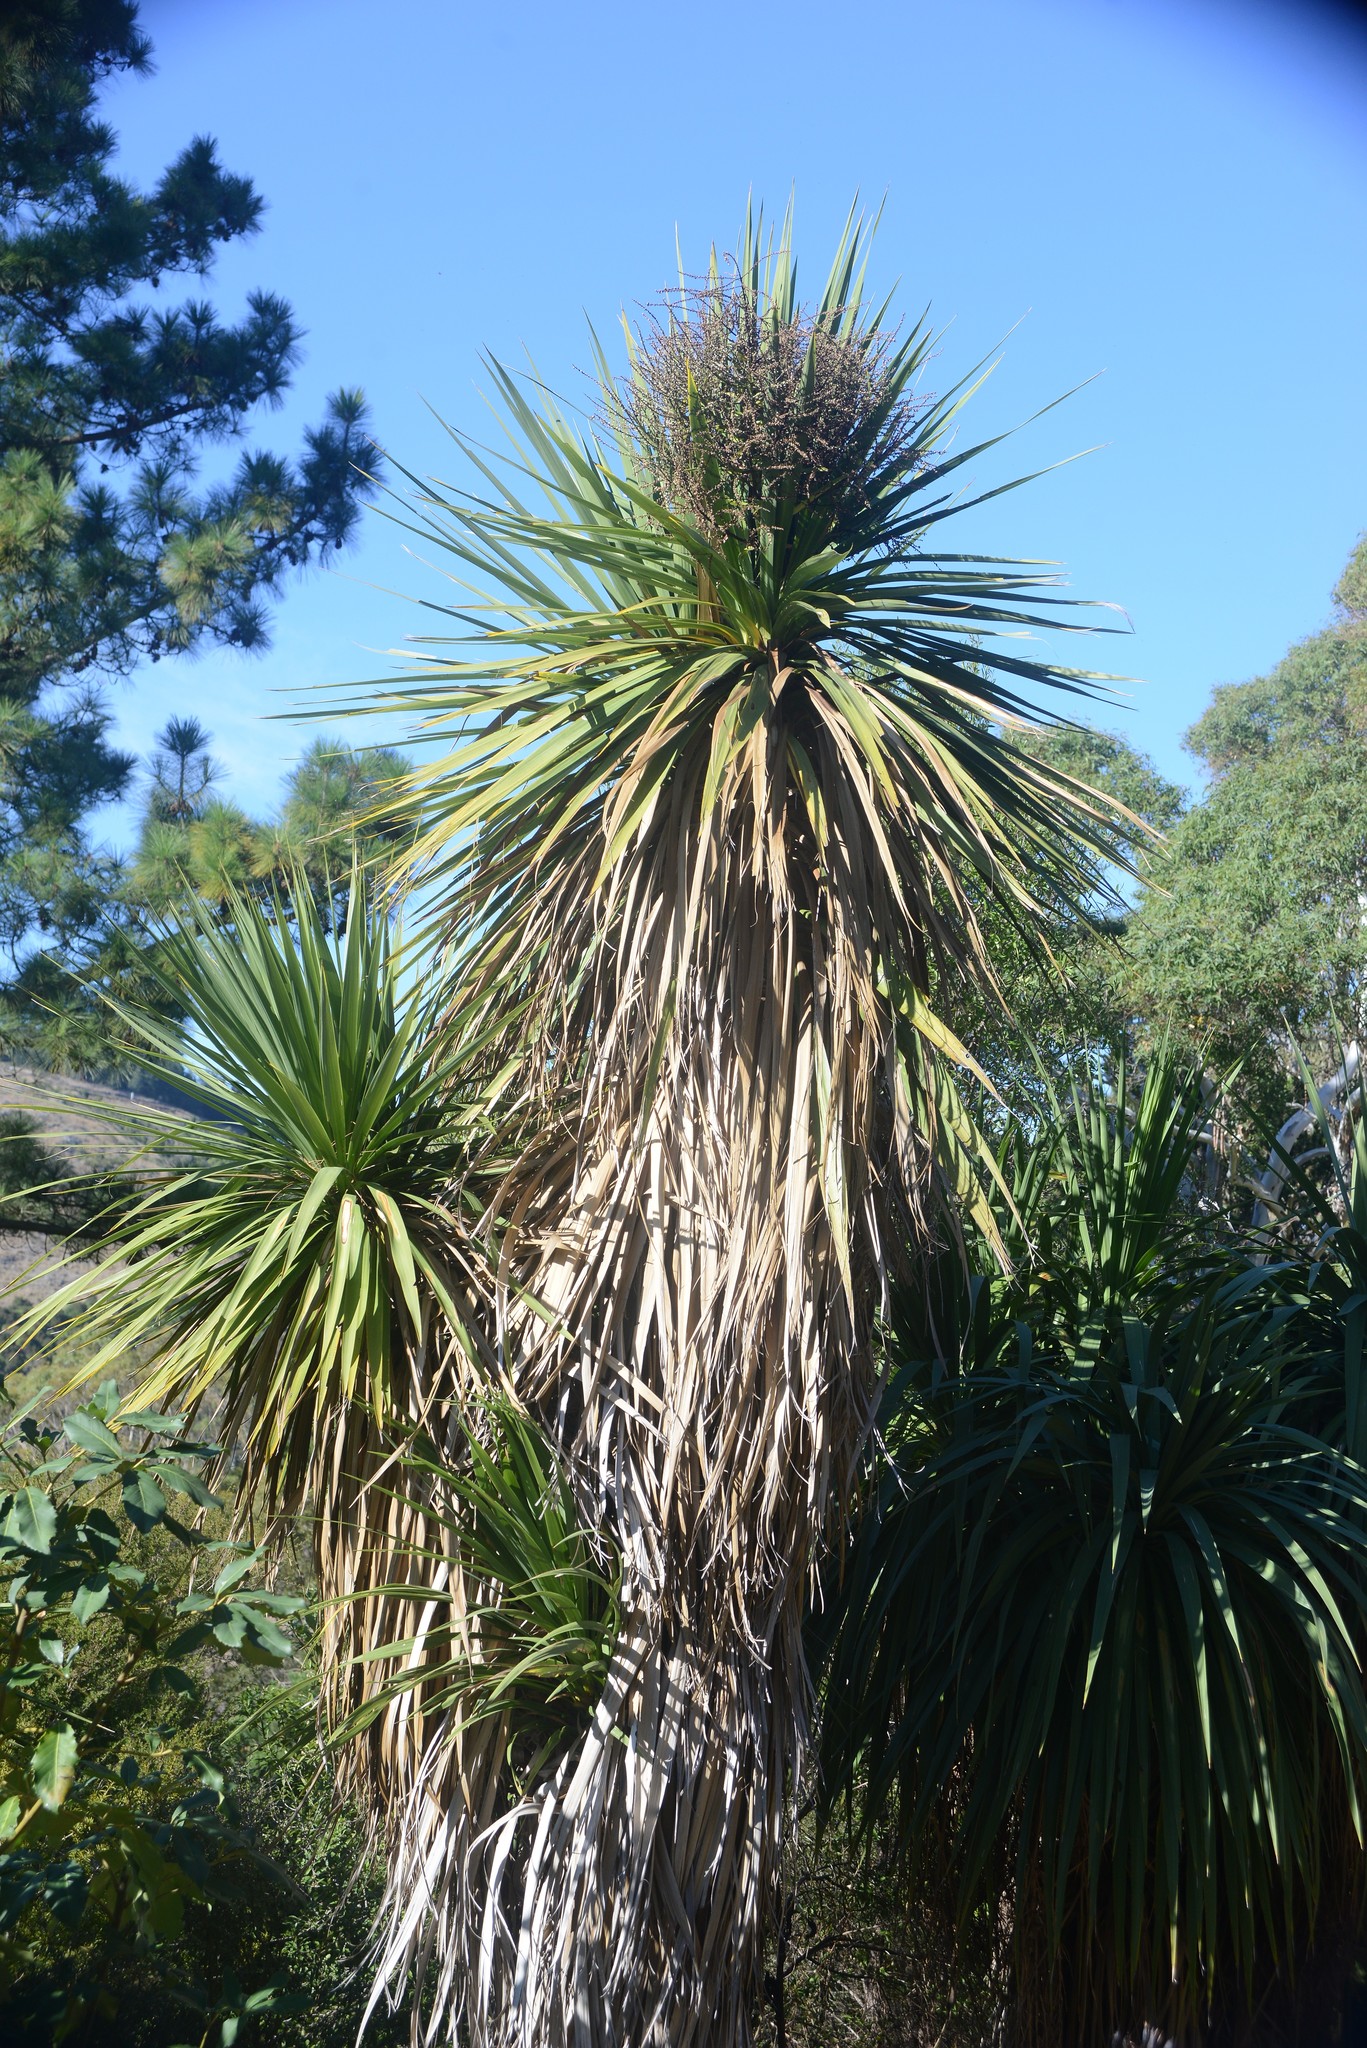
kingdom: Plantae
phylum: Tracheophyta
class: Liliopsida
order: Asparagales
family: Asparagaceae
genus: Cordyline
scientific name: Cordyline australis
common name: Cabbage-palm
